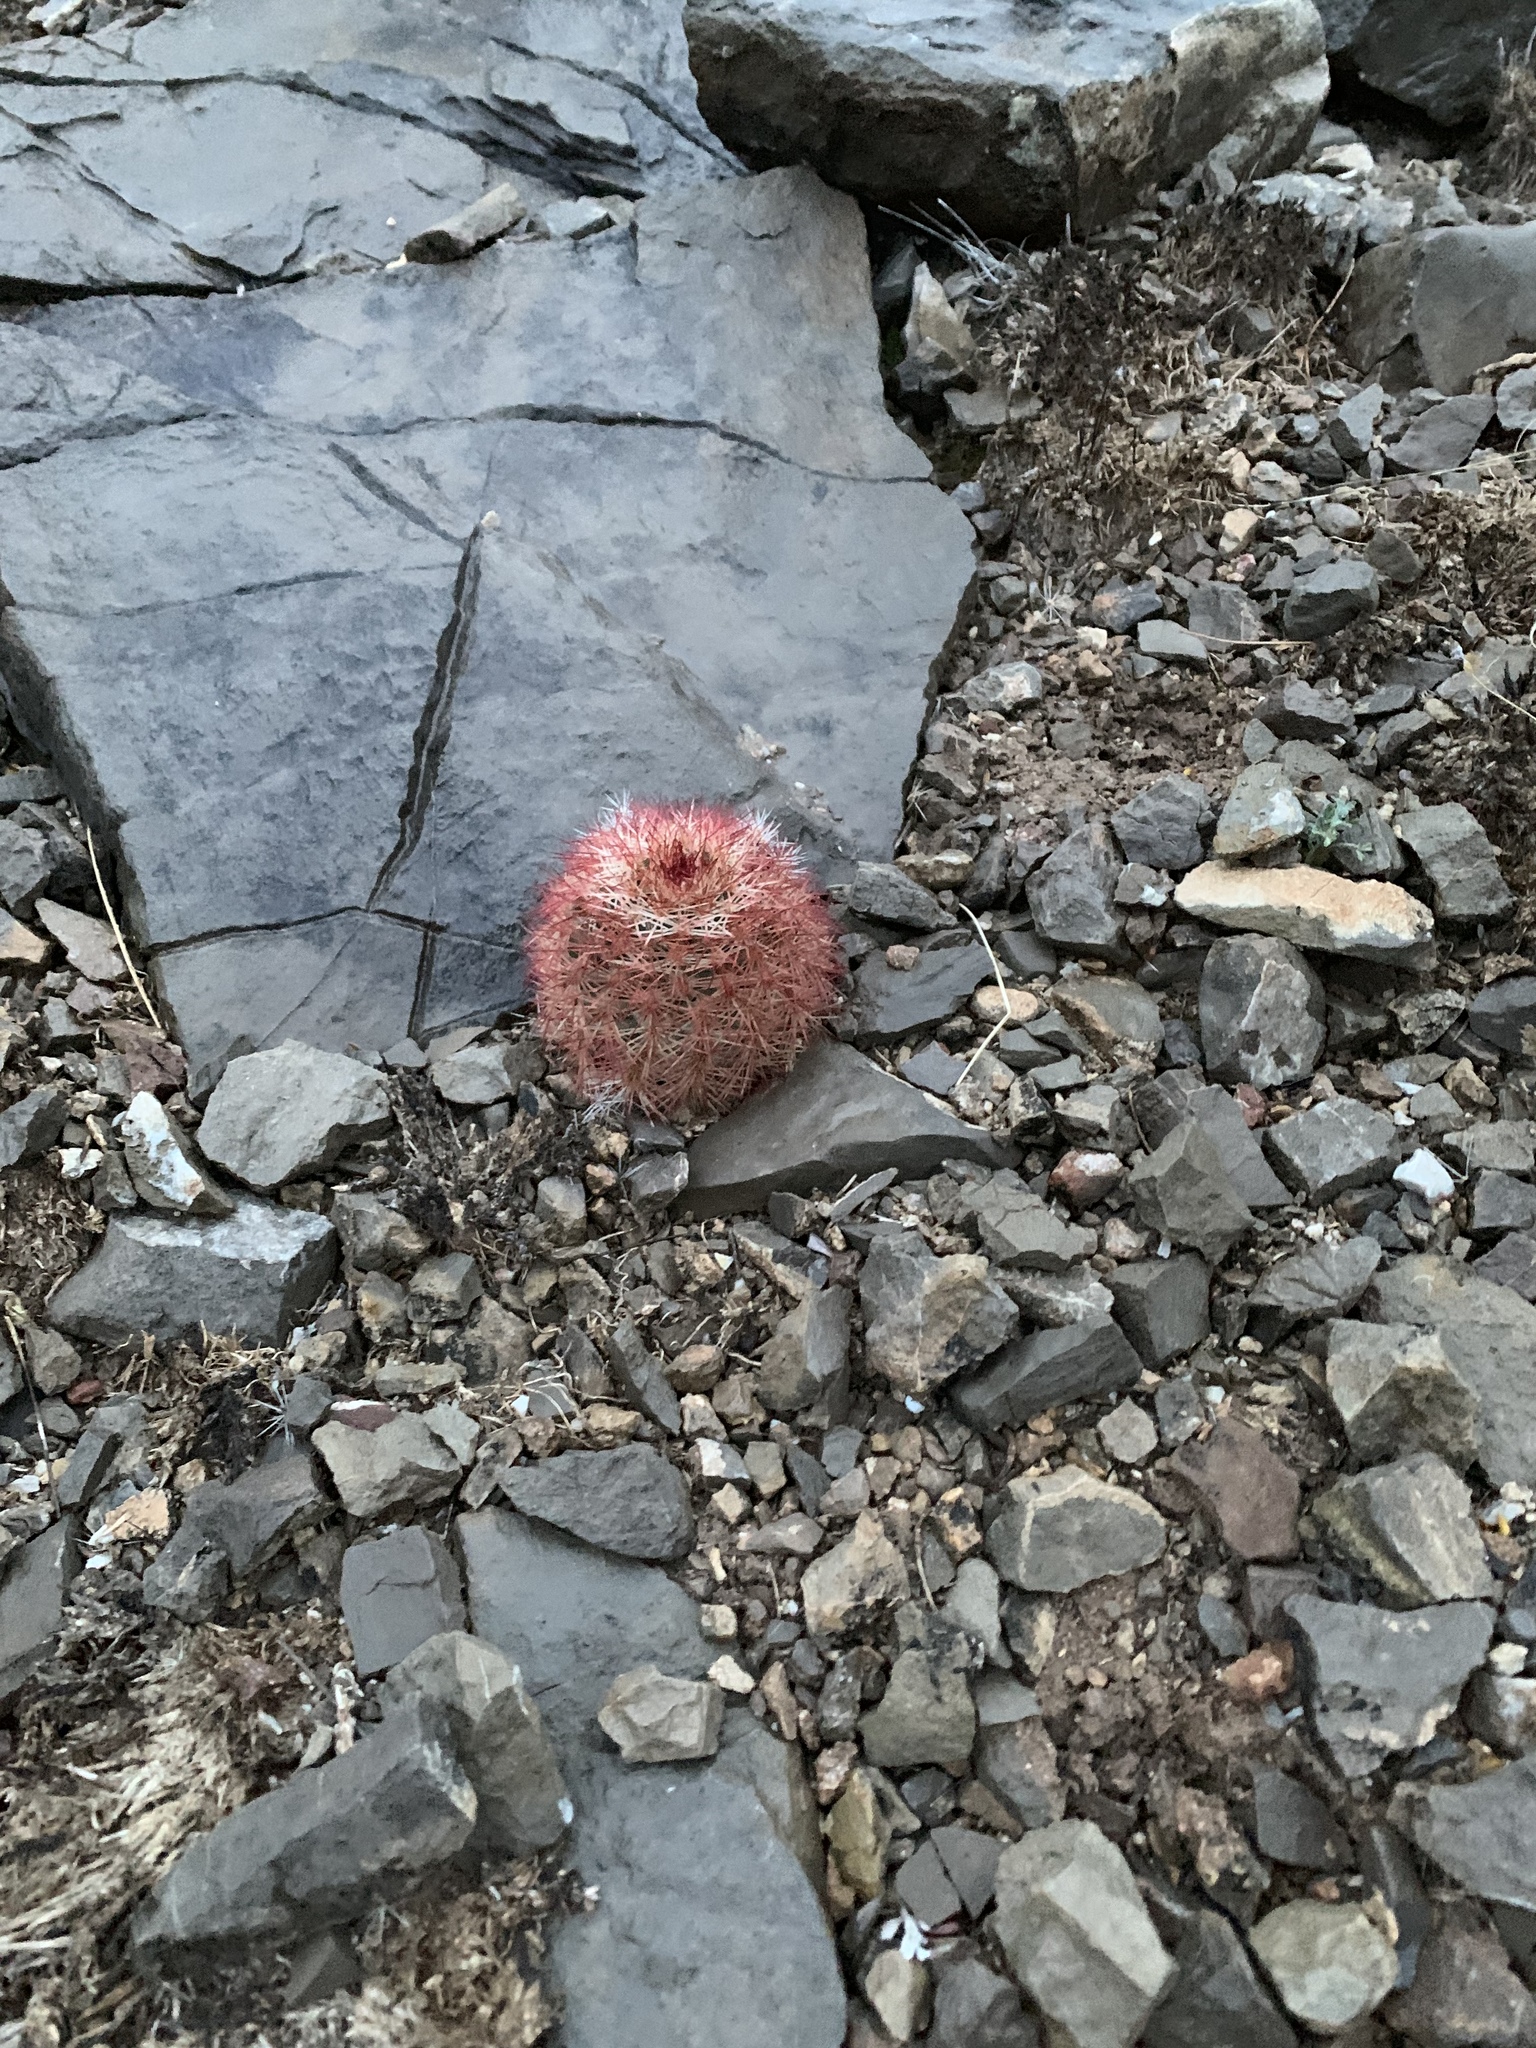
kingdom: Plantae
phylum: Tracheophyta
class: Magnoliopsida
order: Caryophyllales
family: Cactaceae
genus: Echinocereus
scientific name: Echinocereus dasyacanthus
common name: Spiny hedgehog cactus
